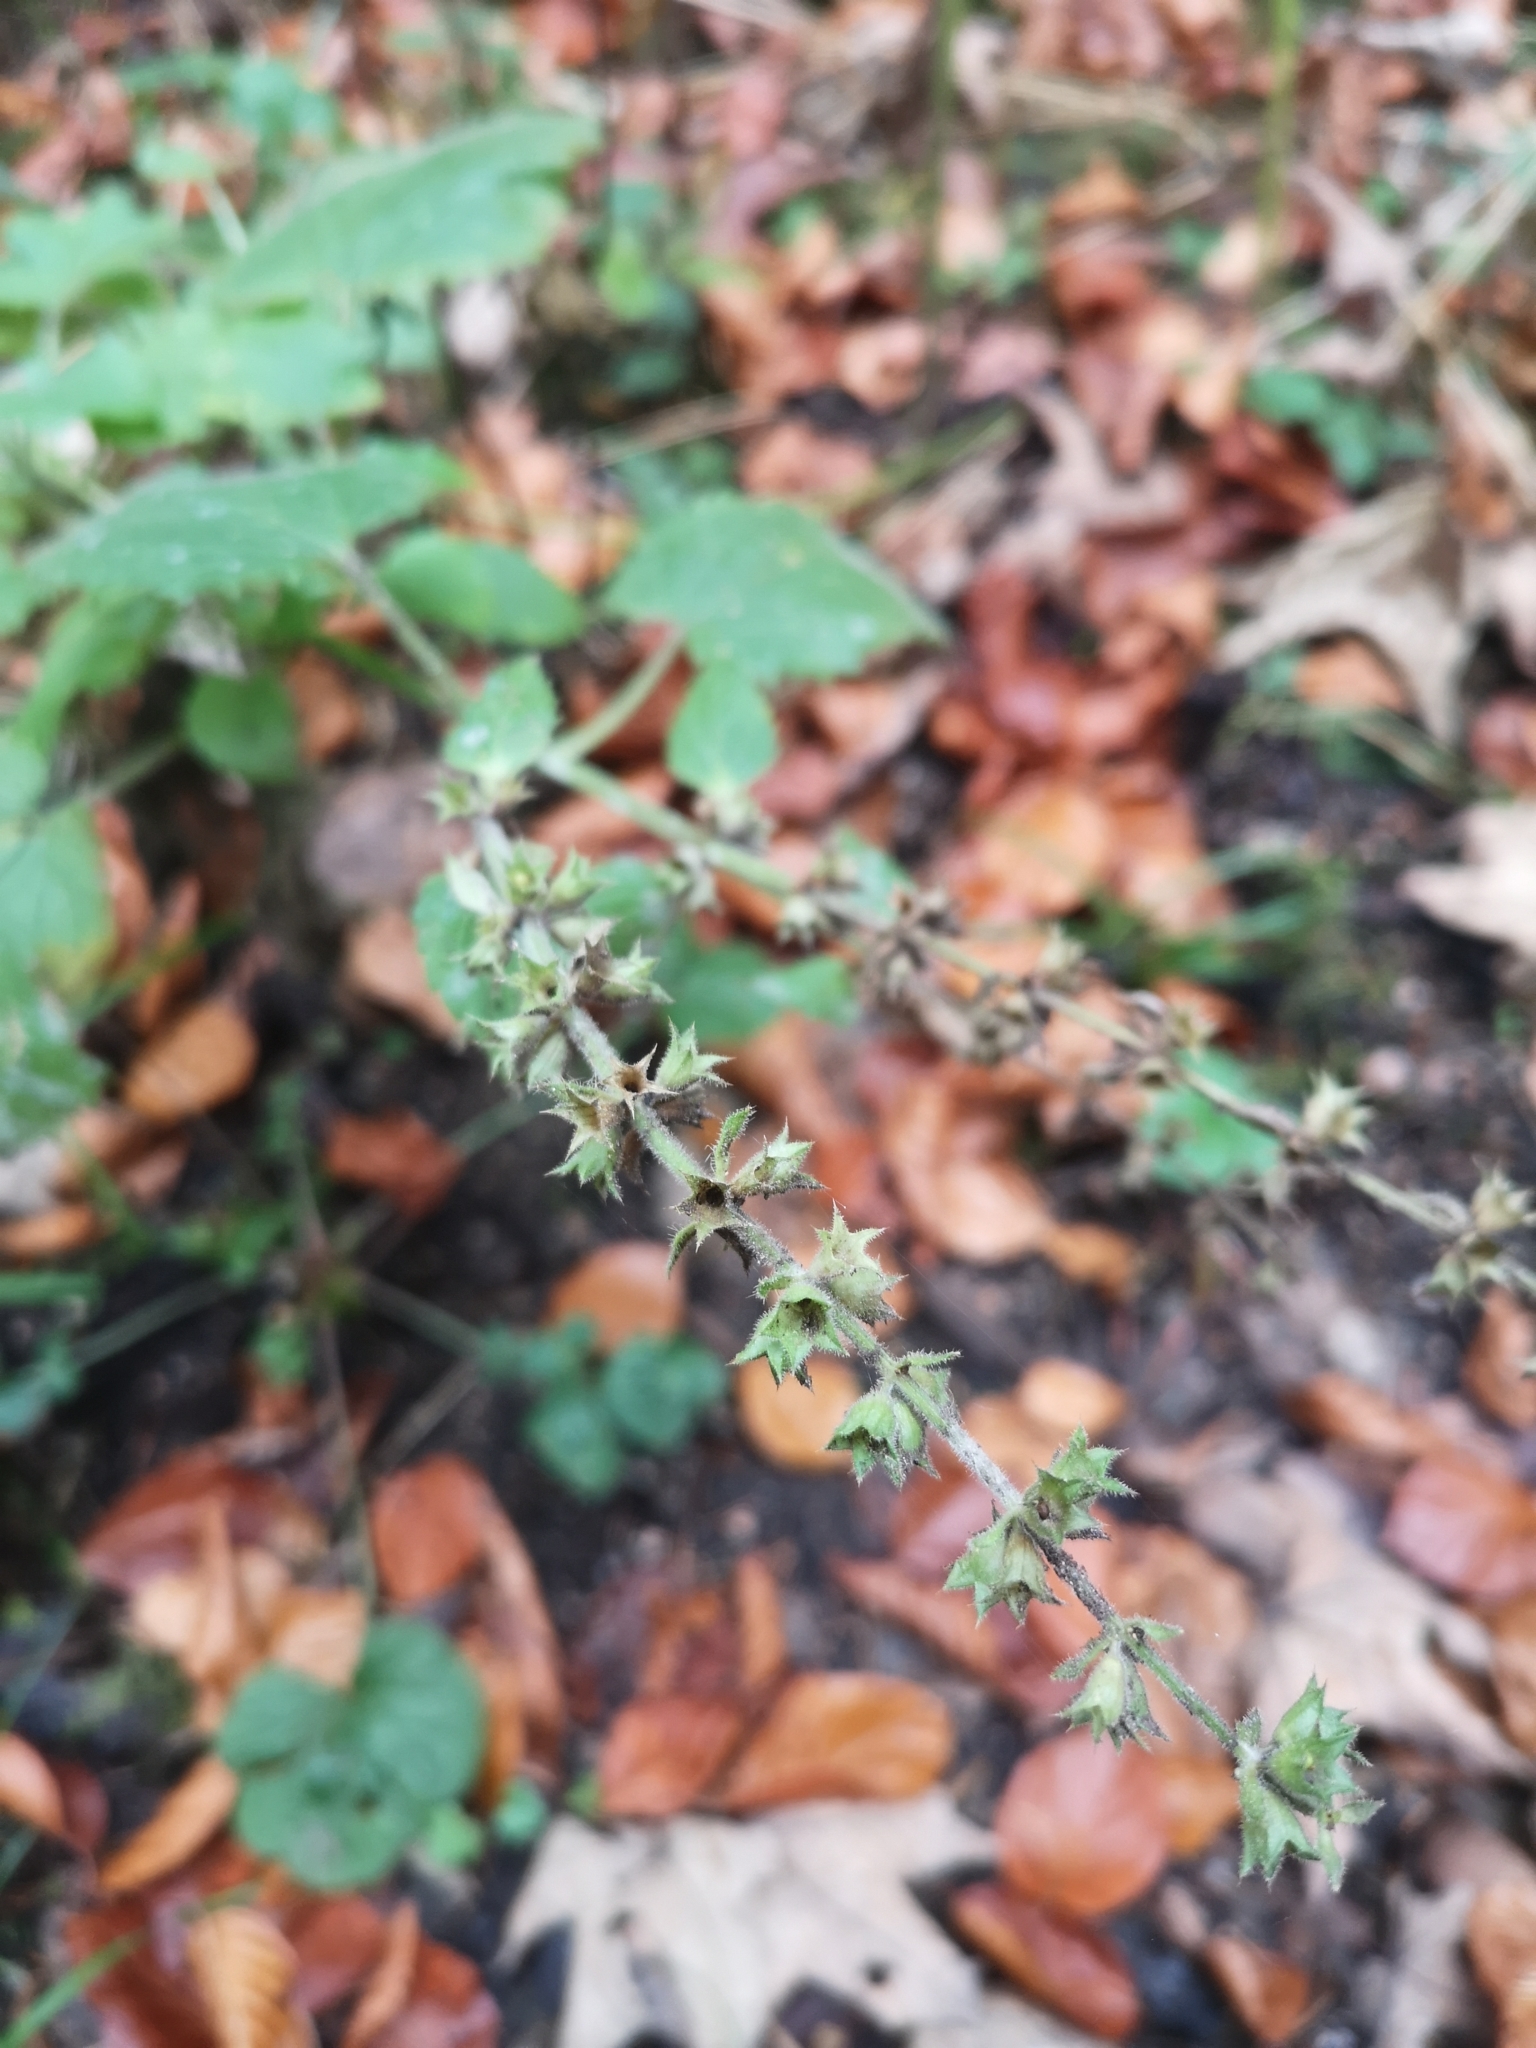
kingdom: Plantae
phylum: Tracheophyta
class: Magnoliopsida
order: Lamiales
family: Lamiaceae
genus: Stachys
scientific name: Stachys sylvatica
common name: Hedge woundwort
